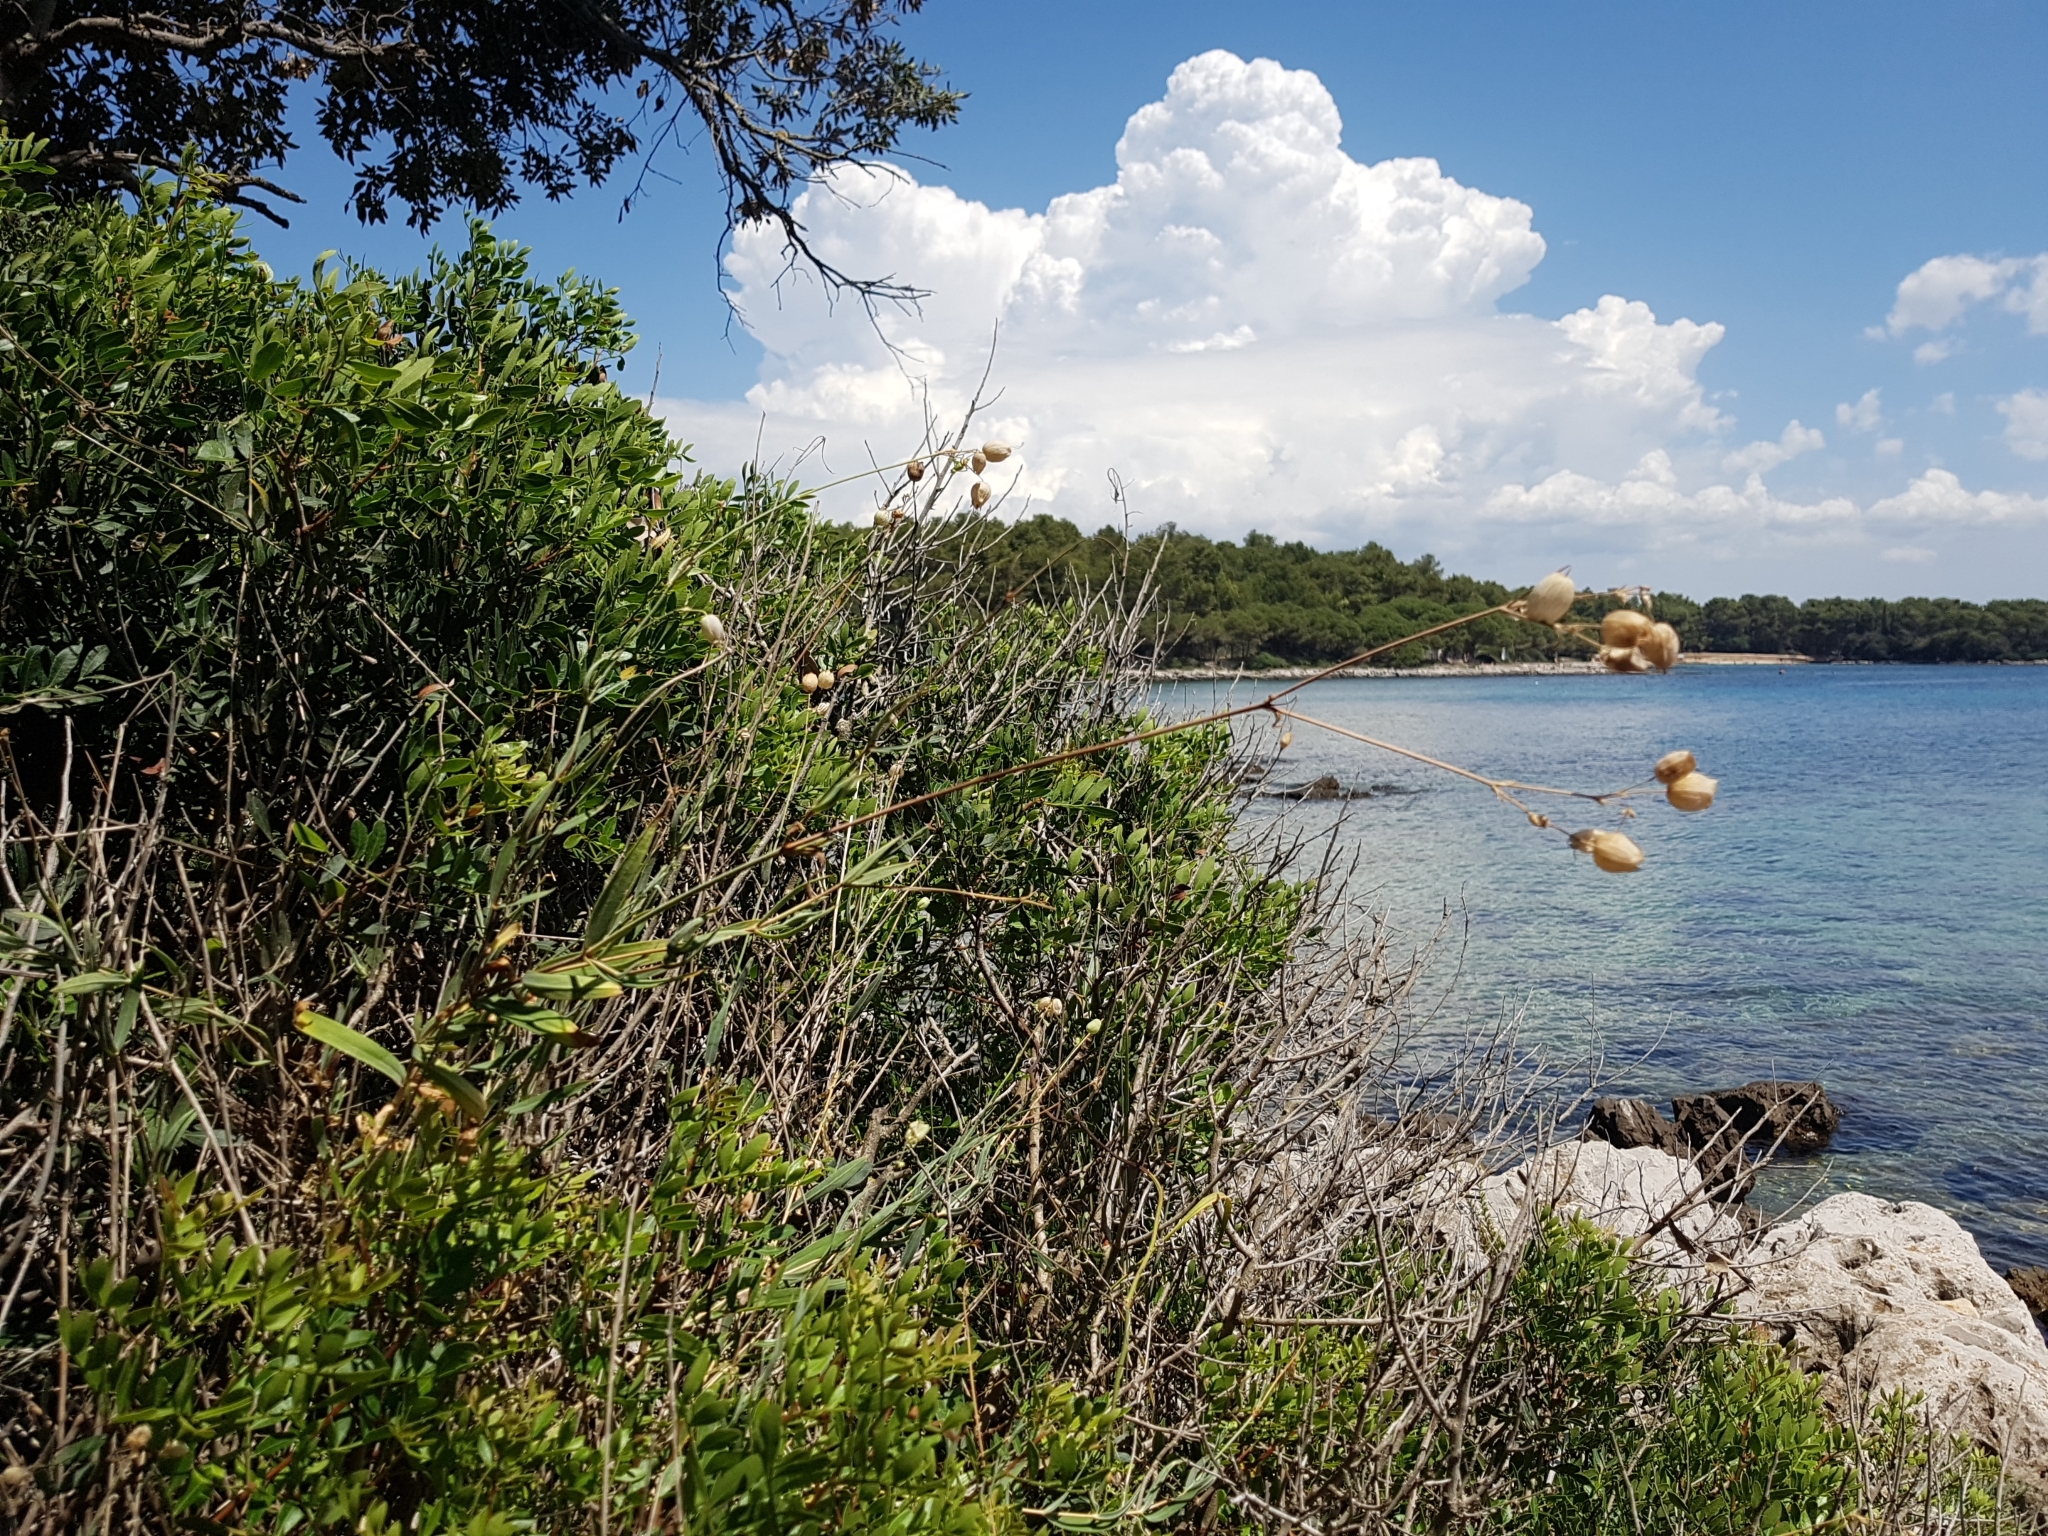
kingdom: Plantae
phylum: Tracheophyta
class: Magnoliopsida
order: Caryophyllales
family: Caryophyllaceae
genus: Silene
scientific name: Silene vulgaris
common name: Bladder campion
